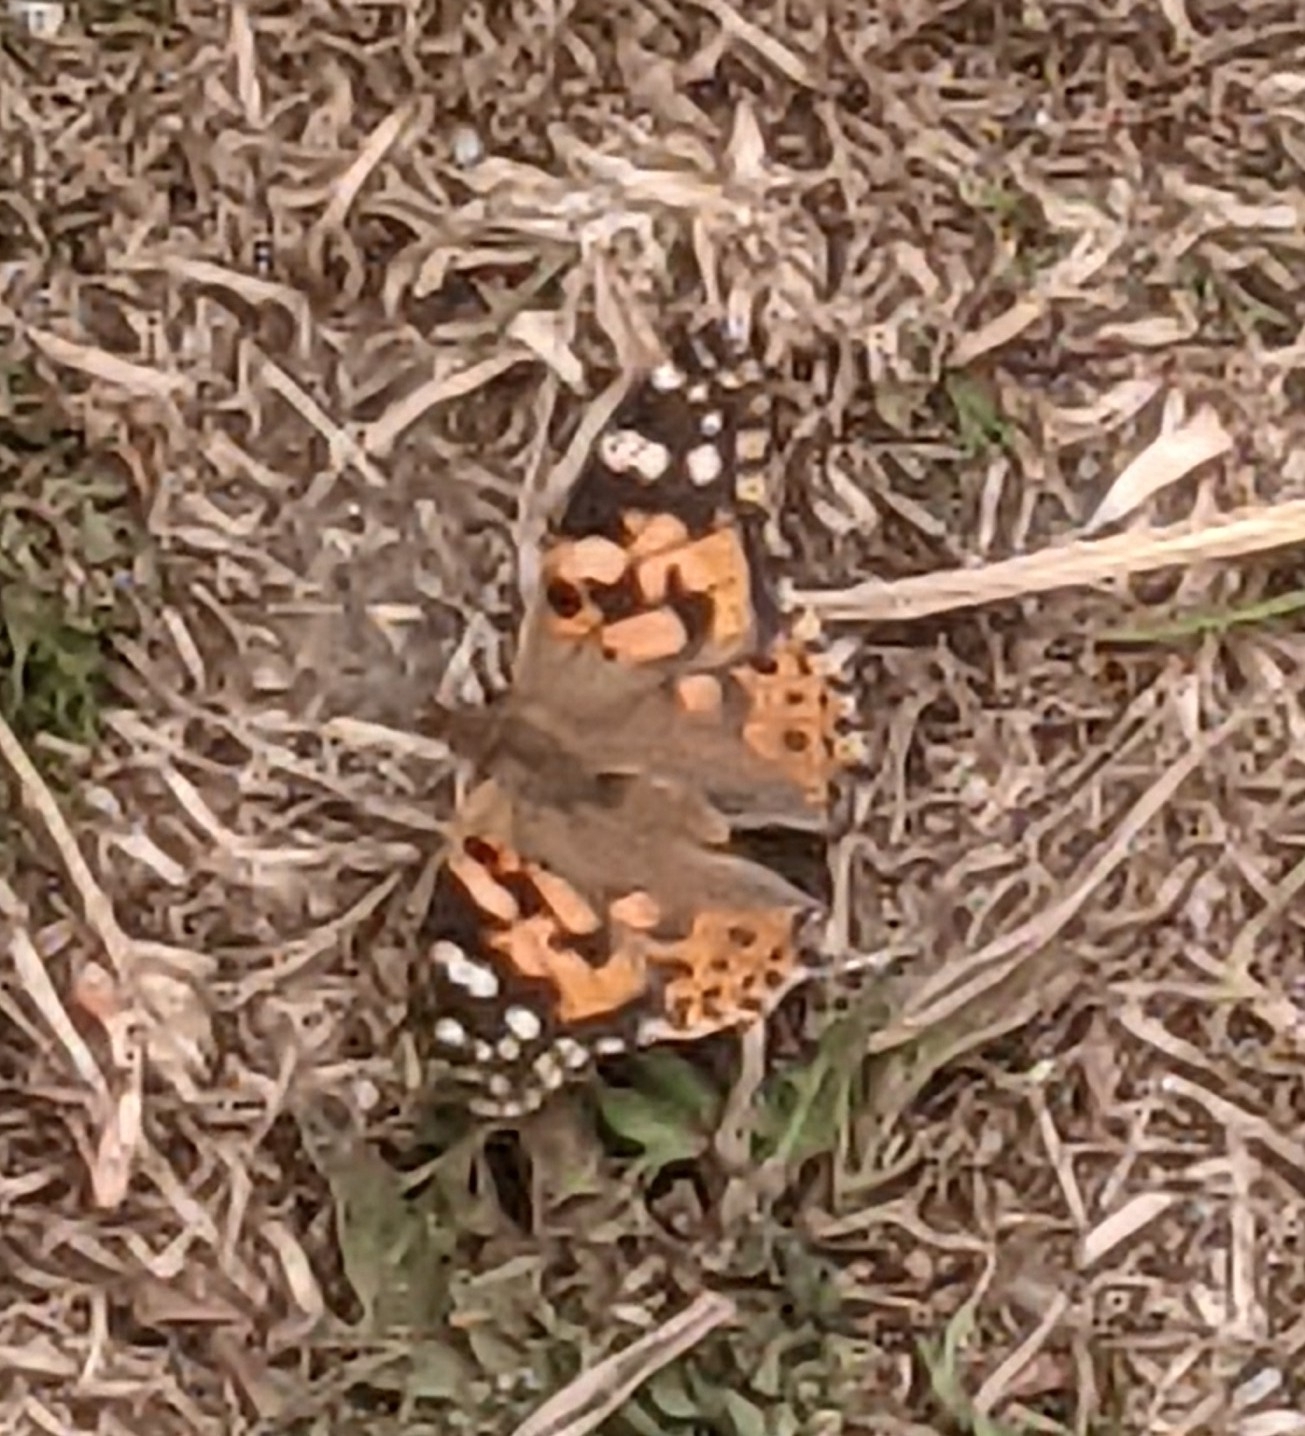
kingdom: Animalia
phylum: Arthropoda
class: Insecta
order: Lepidoptera
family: Nymphalidae
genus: Vanessa
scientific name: Vanessa cardui
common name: Painted lady
